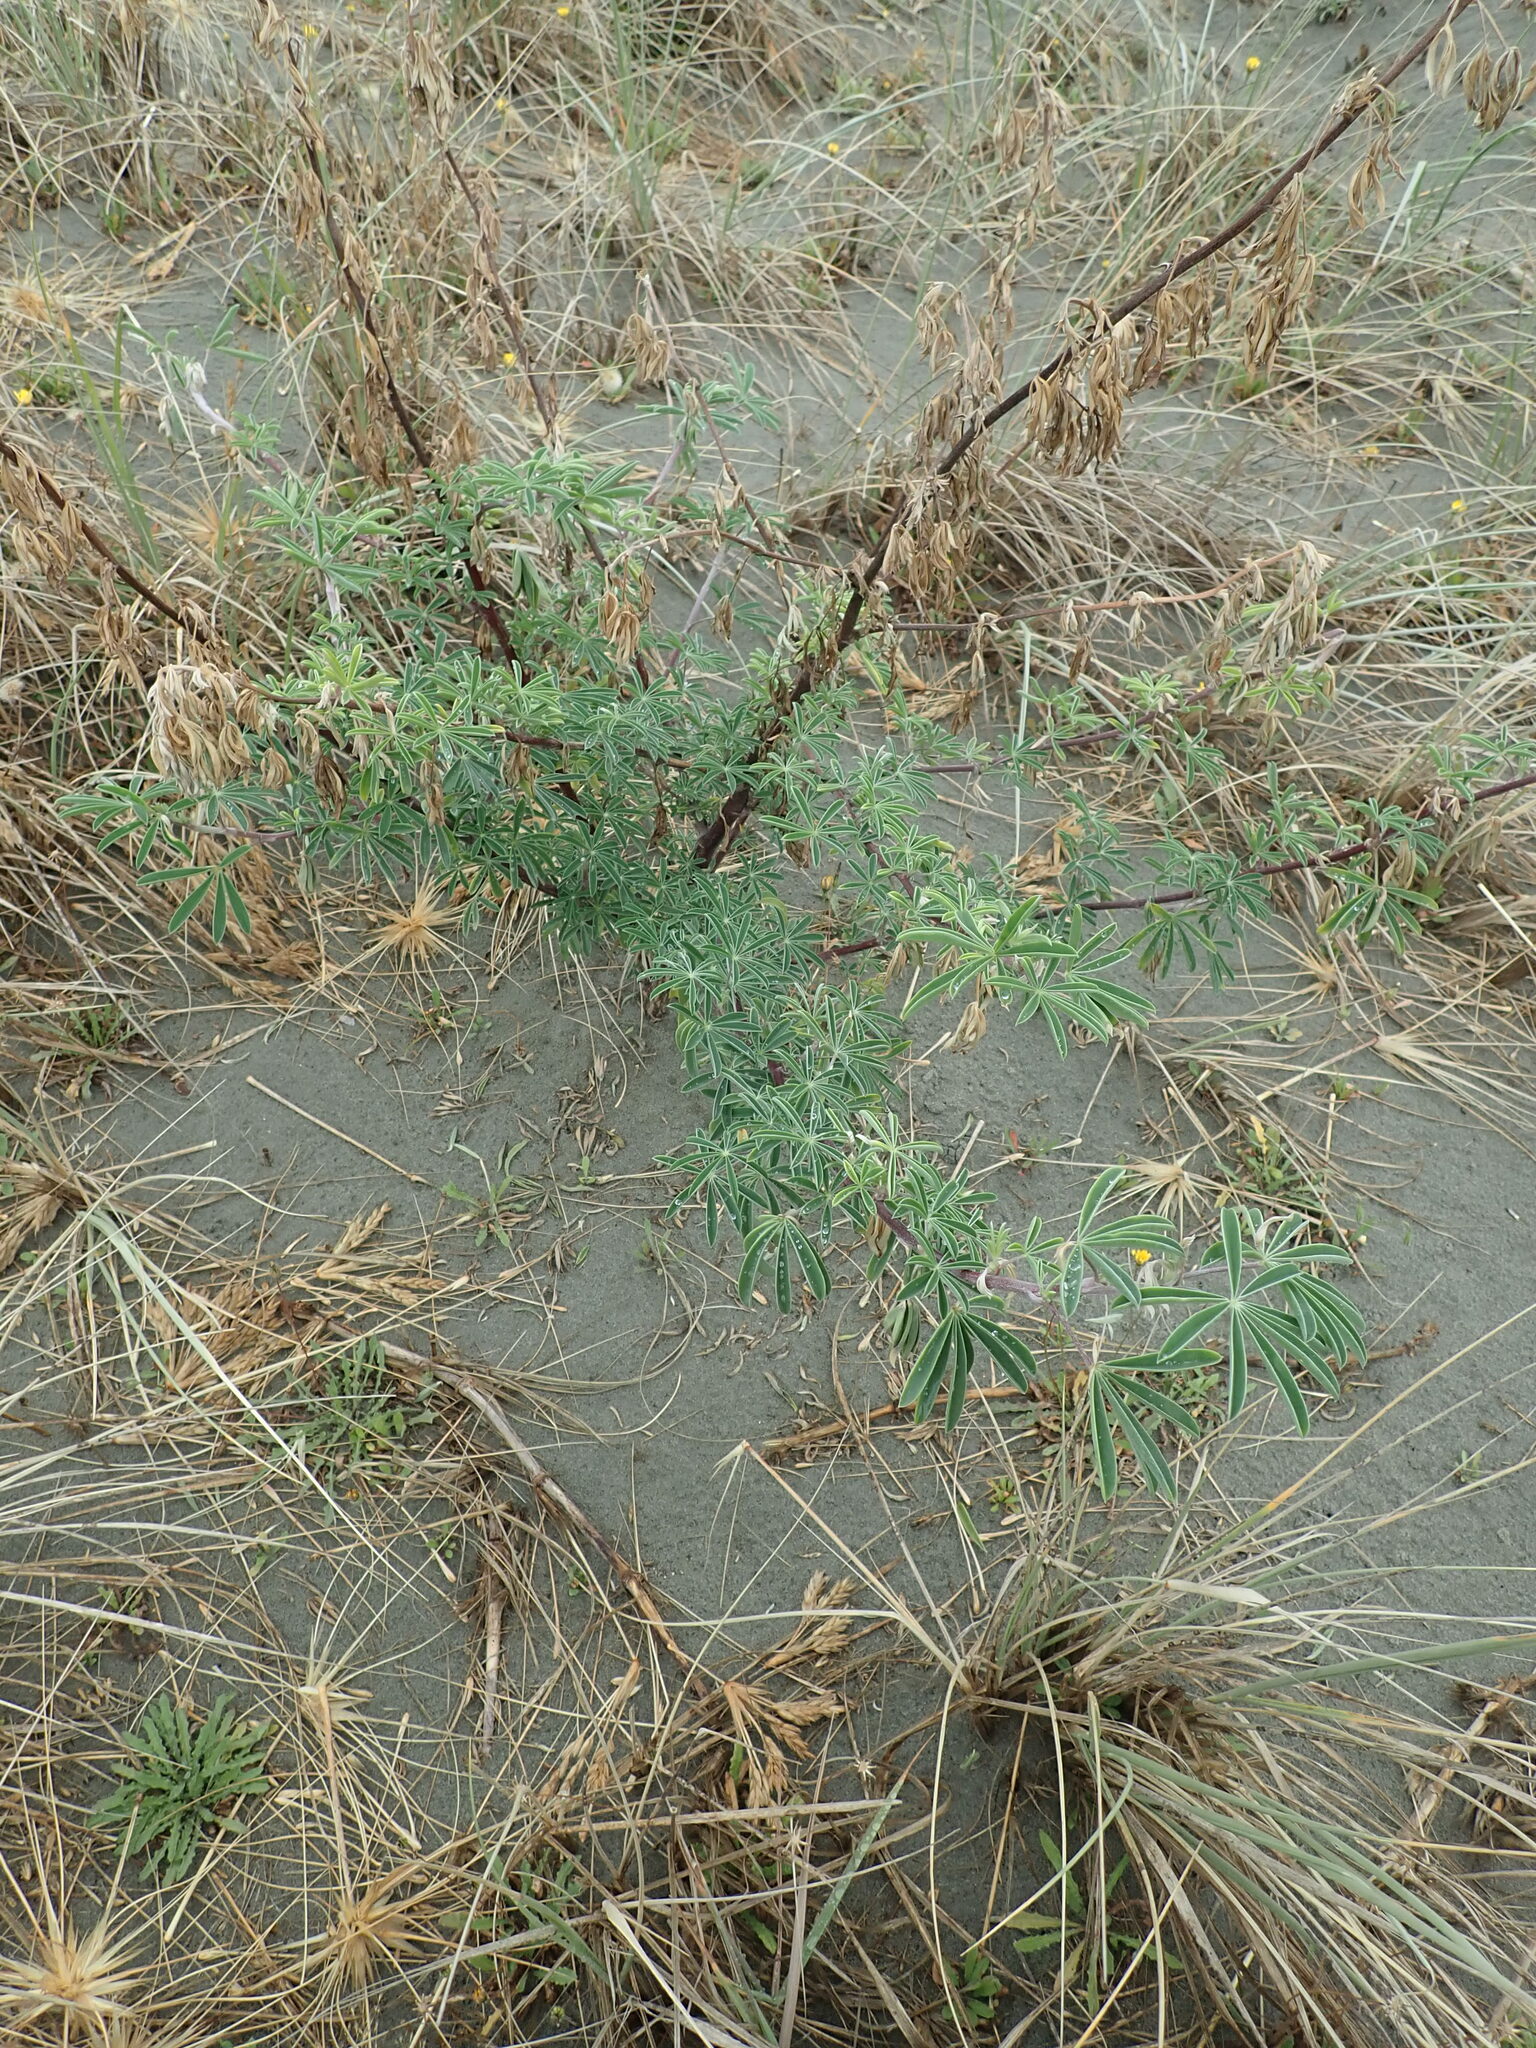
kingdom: Plantae
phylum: Tracheophyta
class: Magnoliopsida
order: Fabales
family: Fabaceae
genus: Lupinus
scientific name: Lupinus arboreus
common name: Yellow bush lupine
